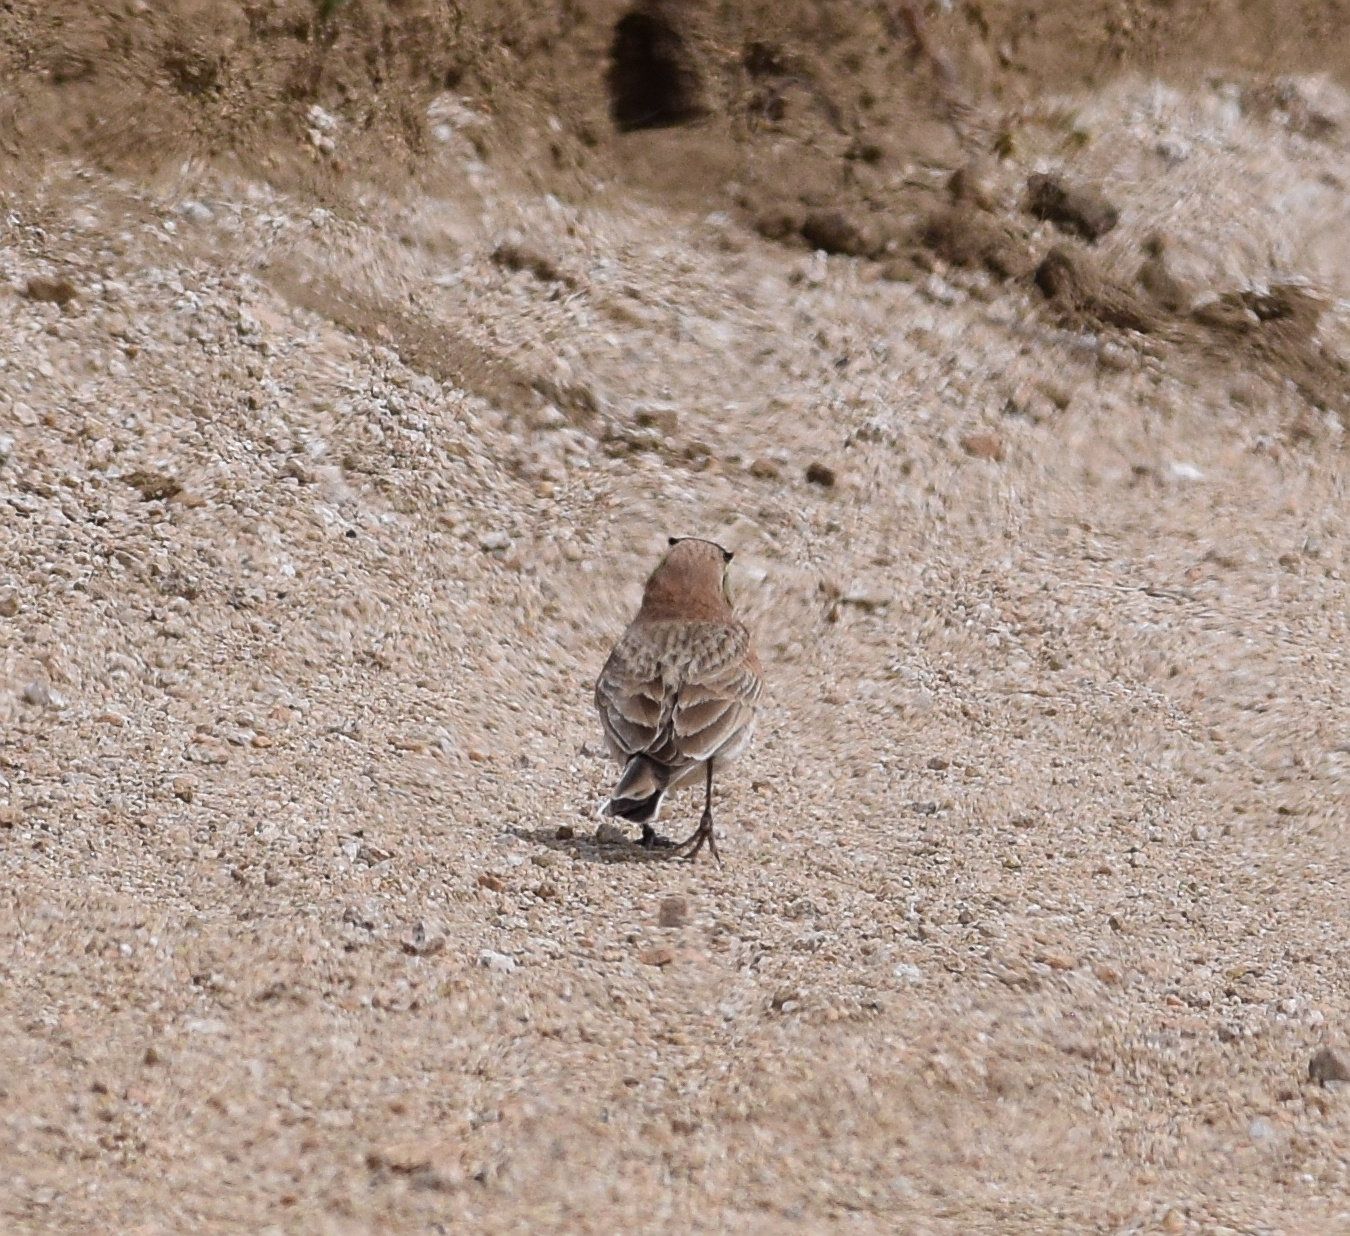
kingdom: Animalia
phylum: Chordata
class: Aves
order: Passeriformes
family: Alaudidae
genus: Eremophila
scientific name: Eremophila alpestris
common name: Horned lark
